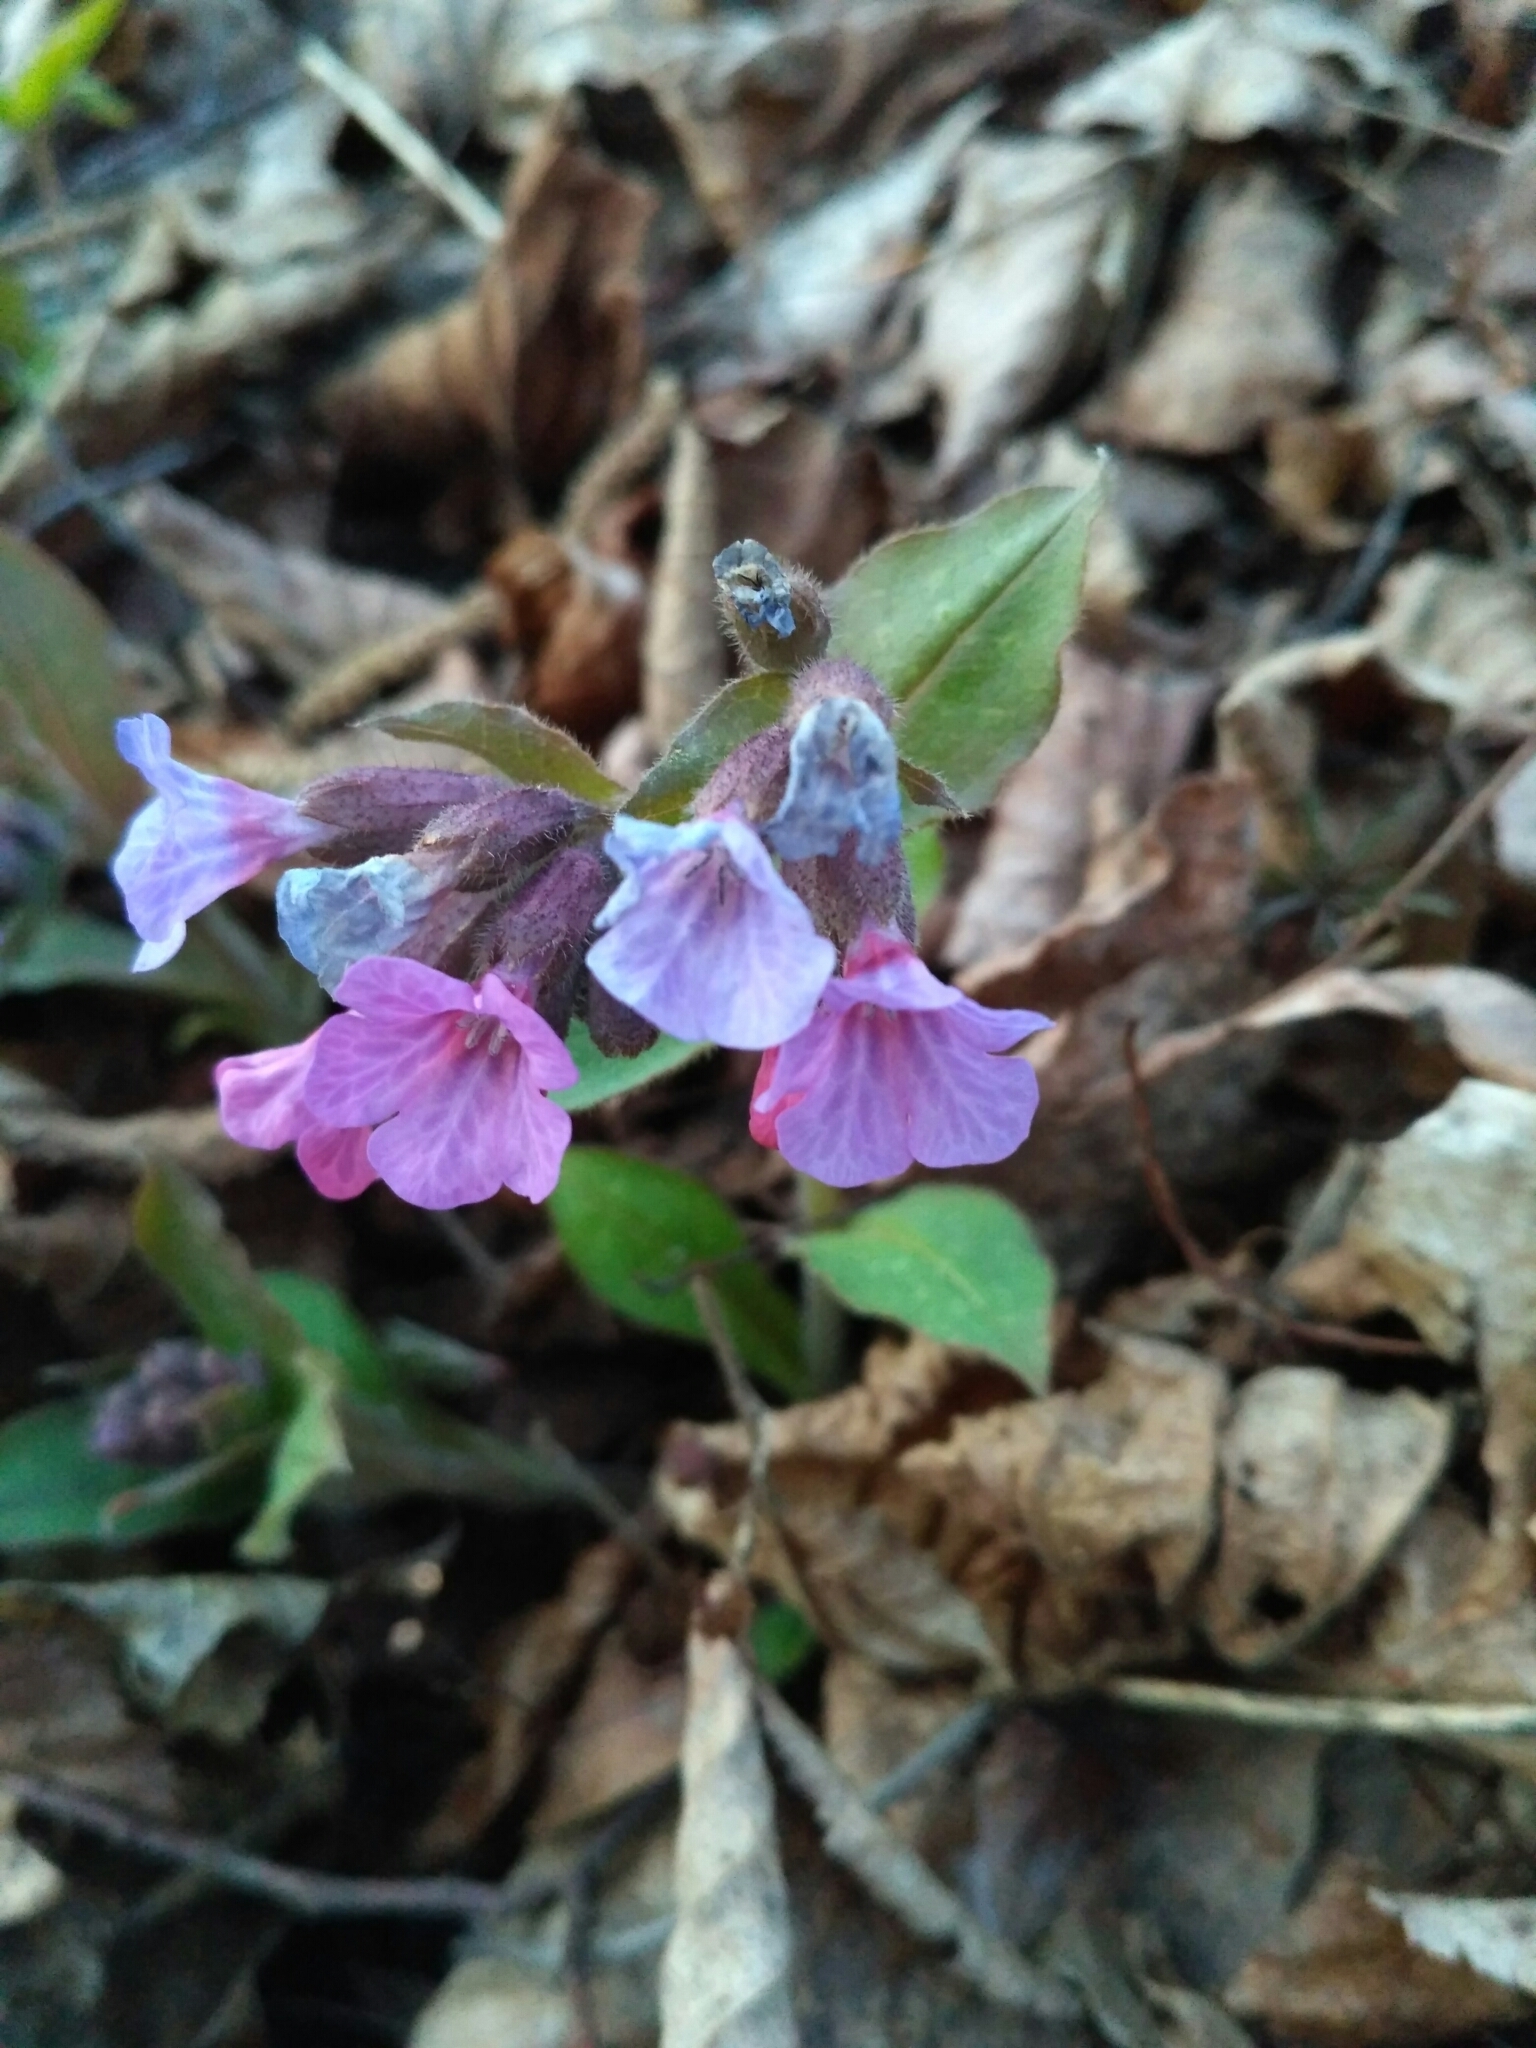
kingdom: Plantae
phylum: Tracheophyta
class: Magnoliopsida
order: Boraginales
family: Boraginaceae
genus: Pulmonaria
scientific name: Pulmonaria obscura
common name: Suffolk lungwort
